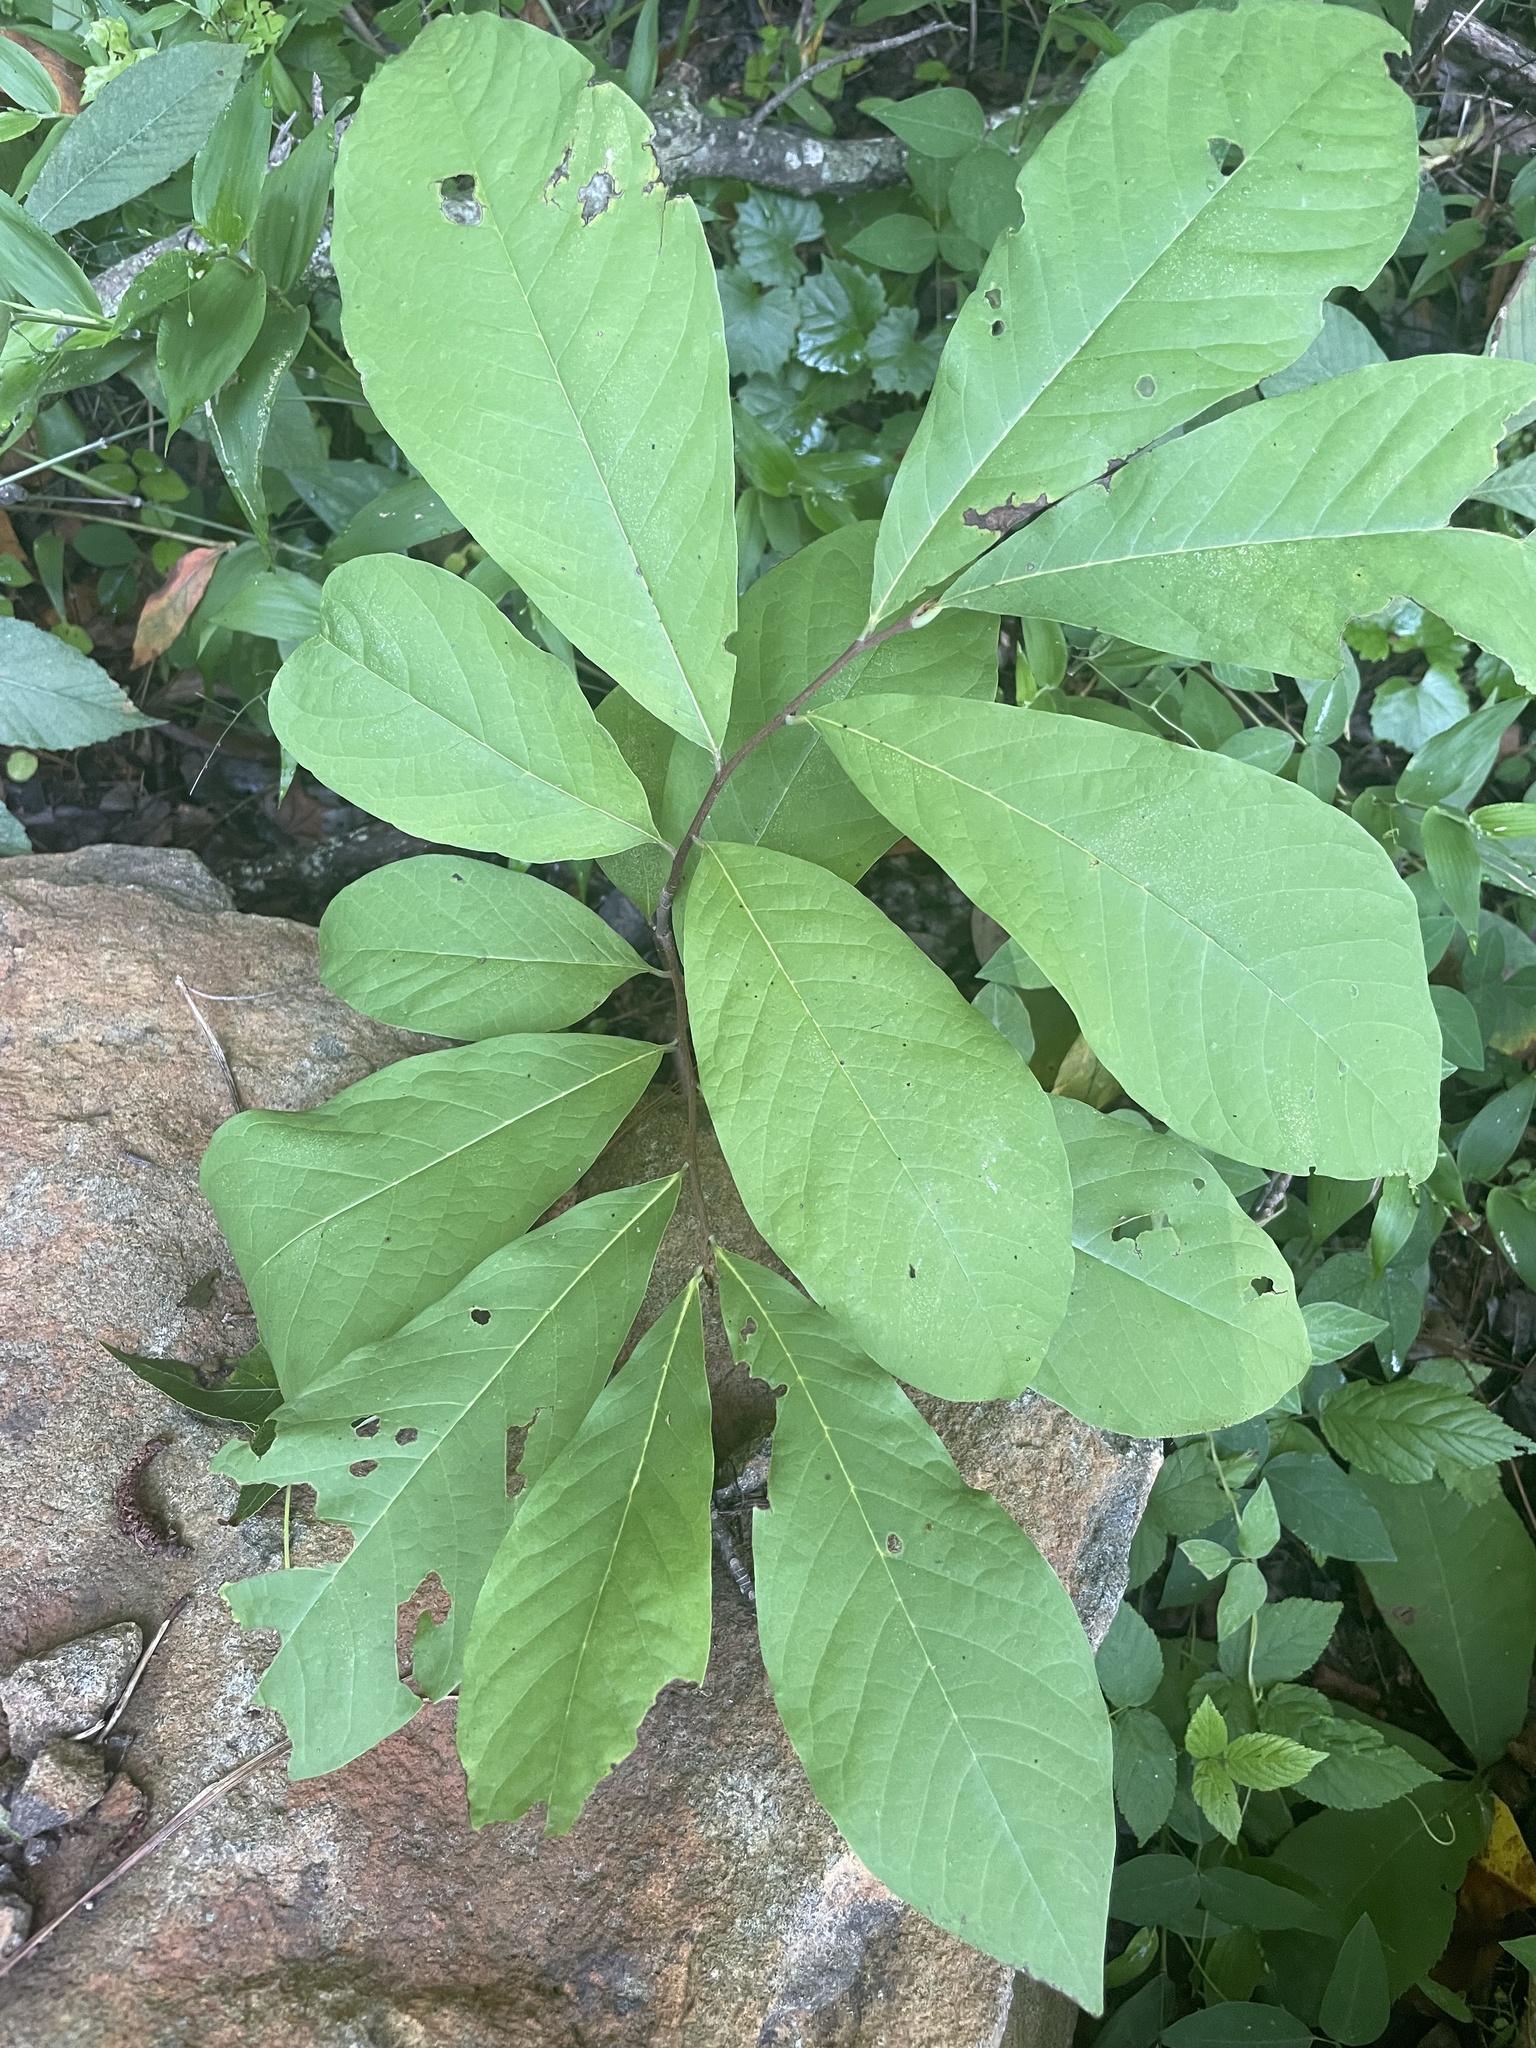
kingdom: Plantae
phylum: Tracheophyta
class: Magnoliopsida
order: Magnoliales
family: Annonaceae
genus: Asimina
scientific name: Asimina triloba
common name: Dog-banana
